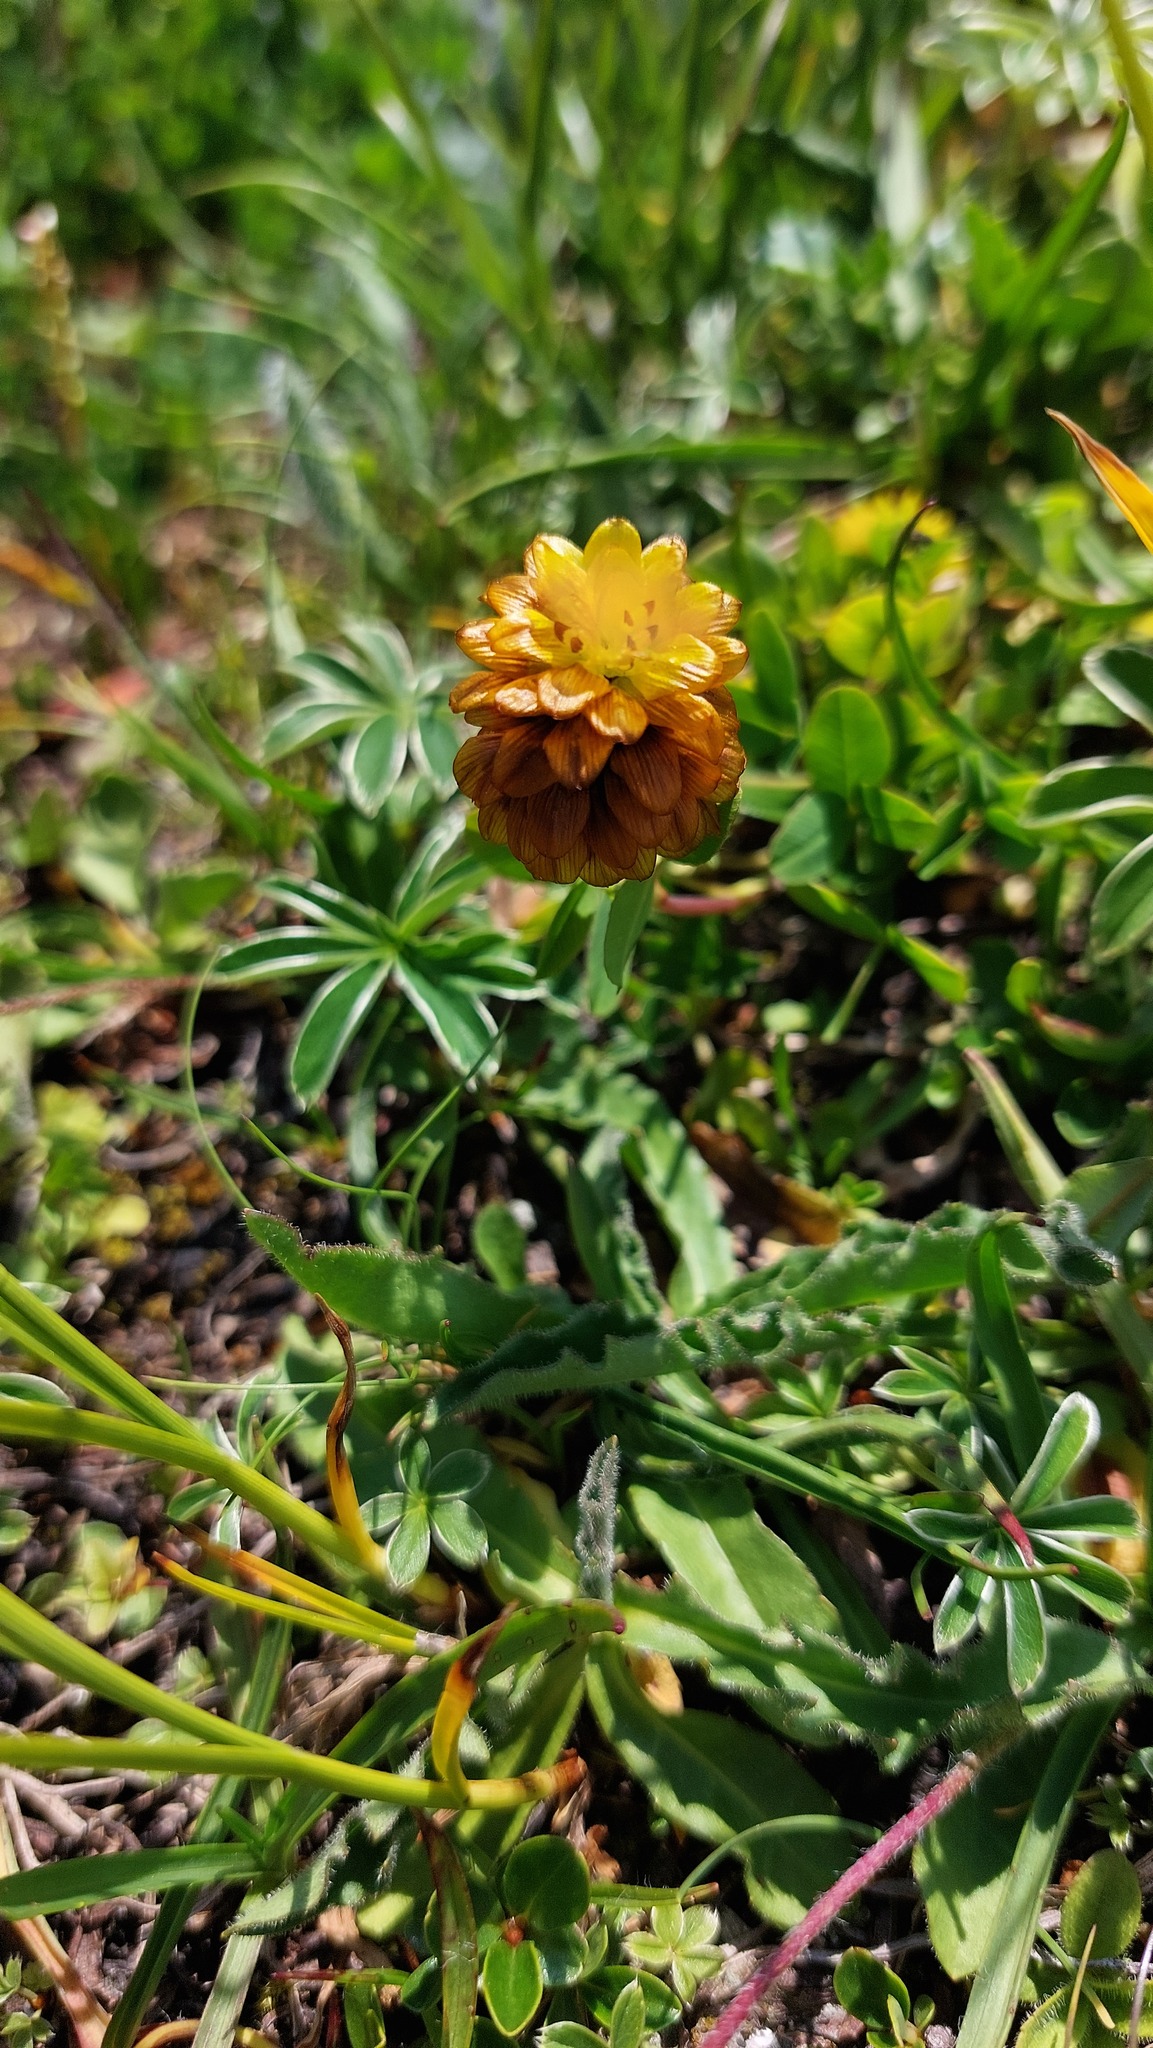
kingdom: Plantae
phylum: Tracheophyta
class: Magnoliopsida
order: Fabales
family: Fabaceae
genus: Trifolium
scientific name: Trifolium badium
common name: Brown clover
